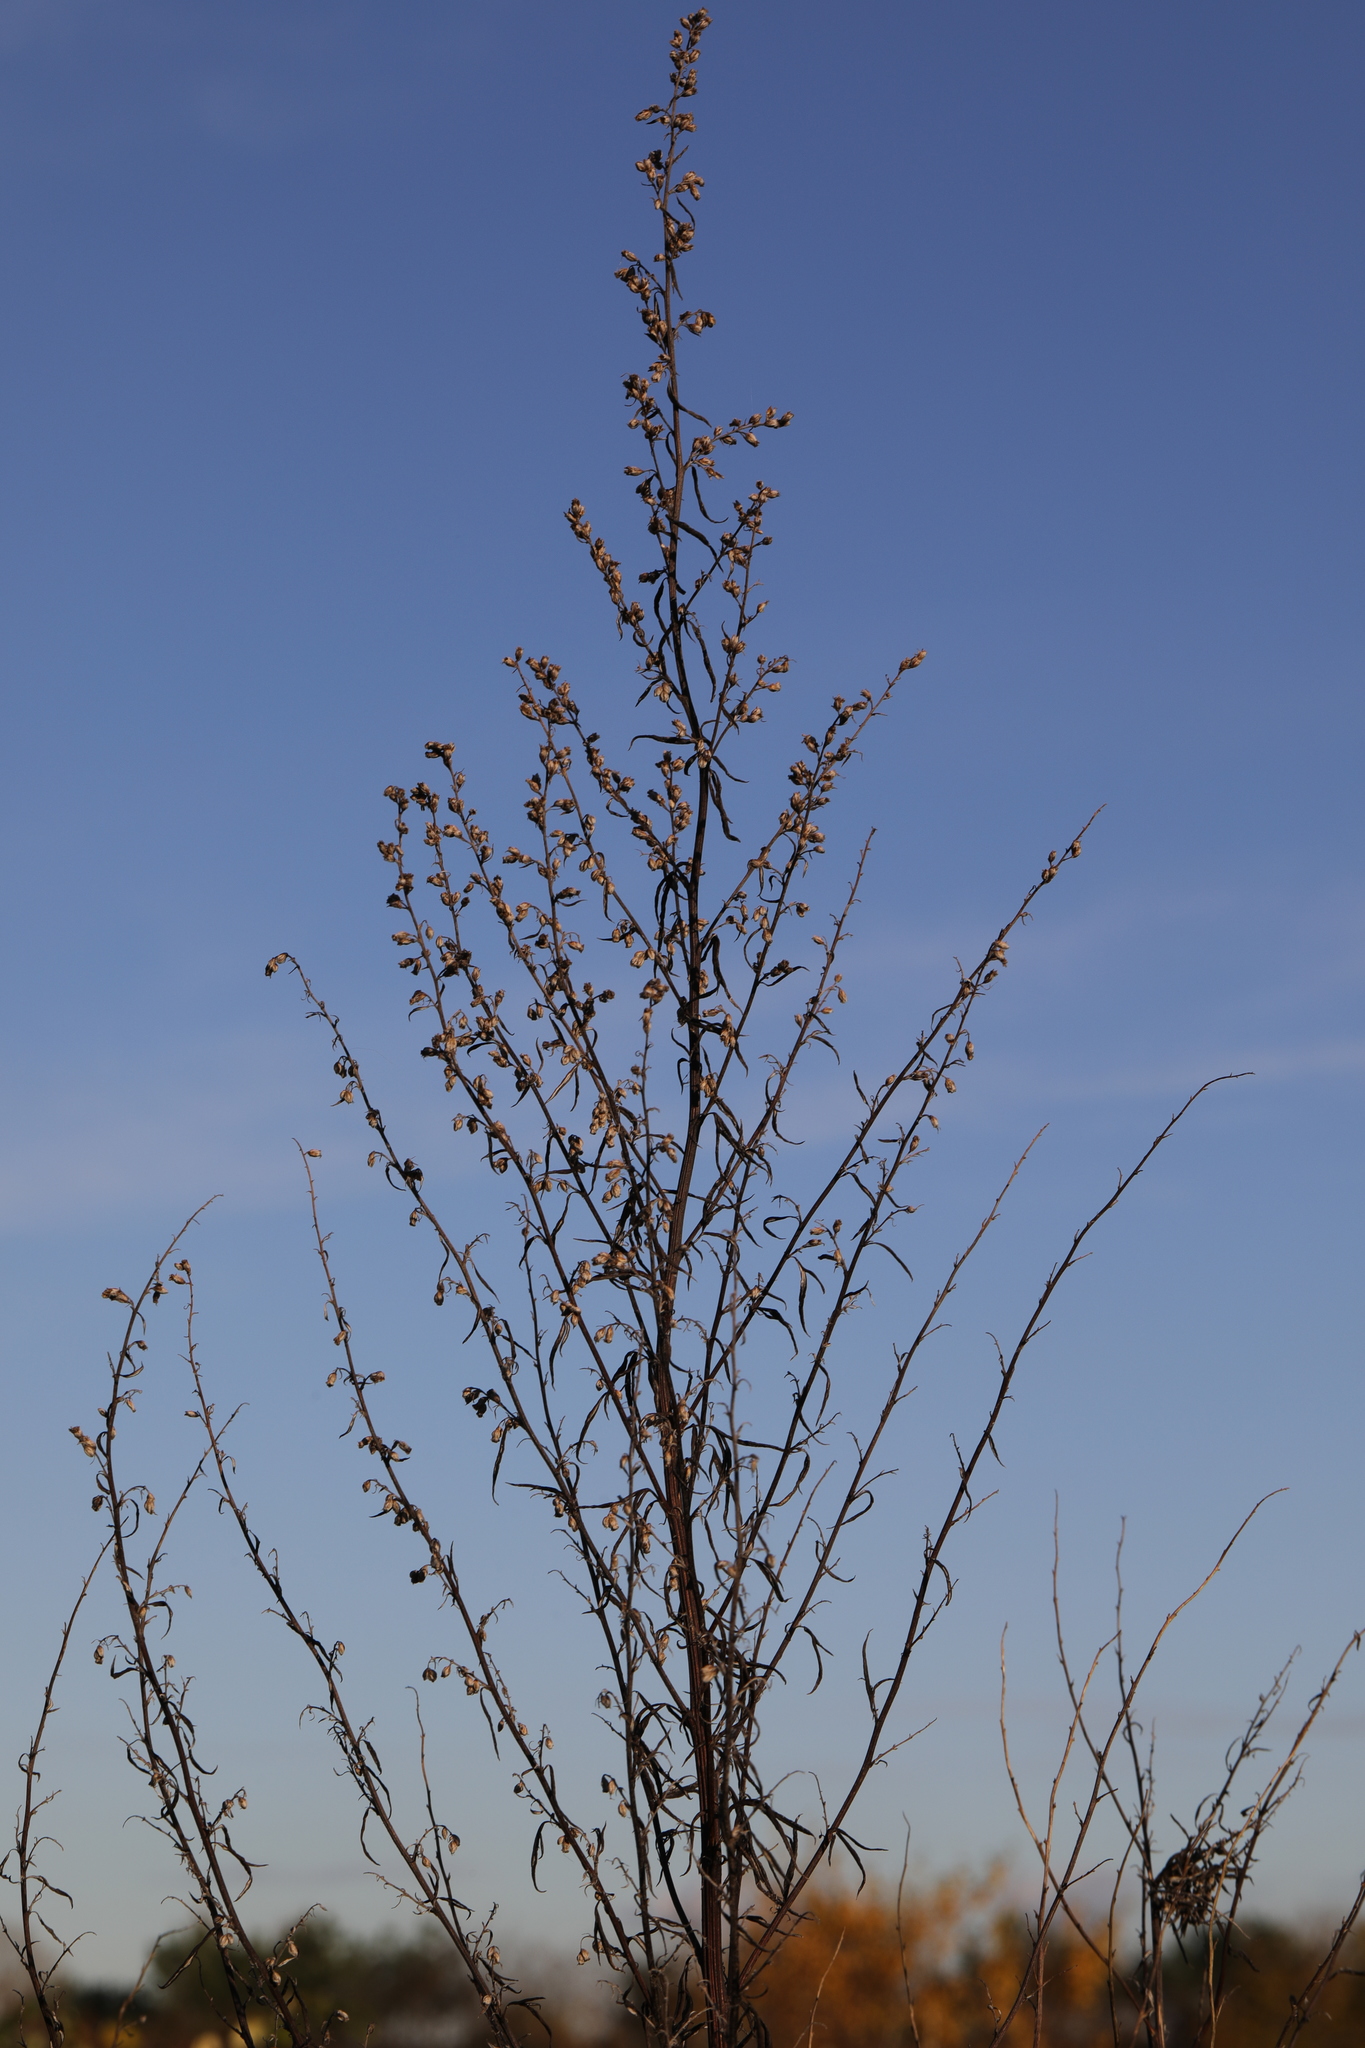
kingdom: Plantae
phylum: Tracheophyta
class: Magnoliopsida
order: Asterales
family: Asteraceae
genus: Artemisia
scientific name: Artemisia vulgaris
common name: Mugwort
